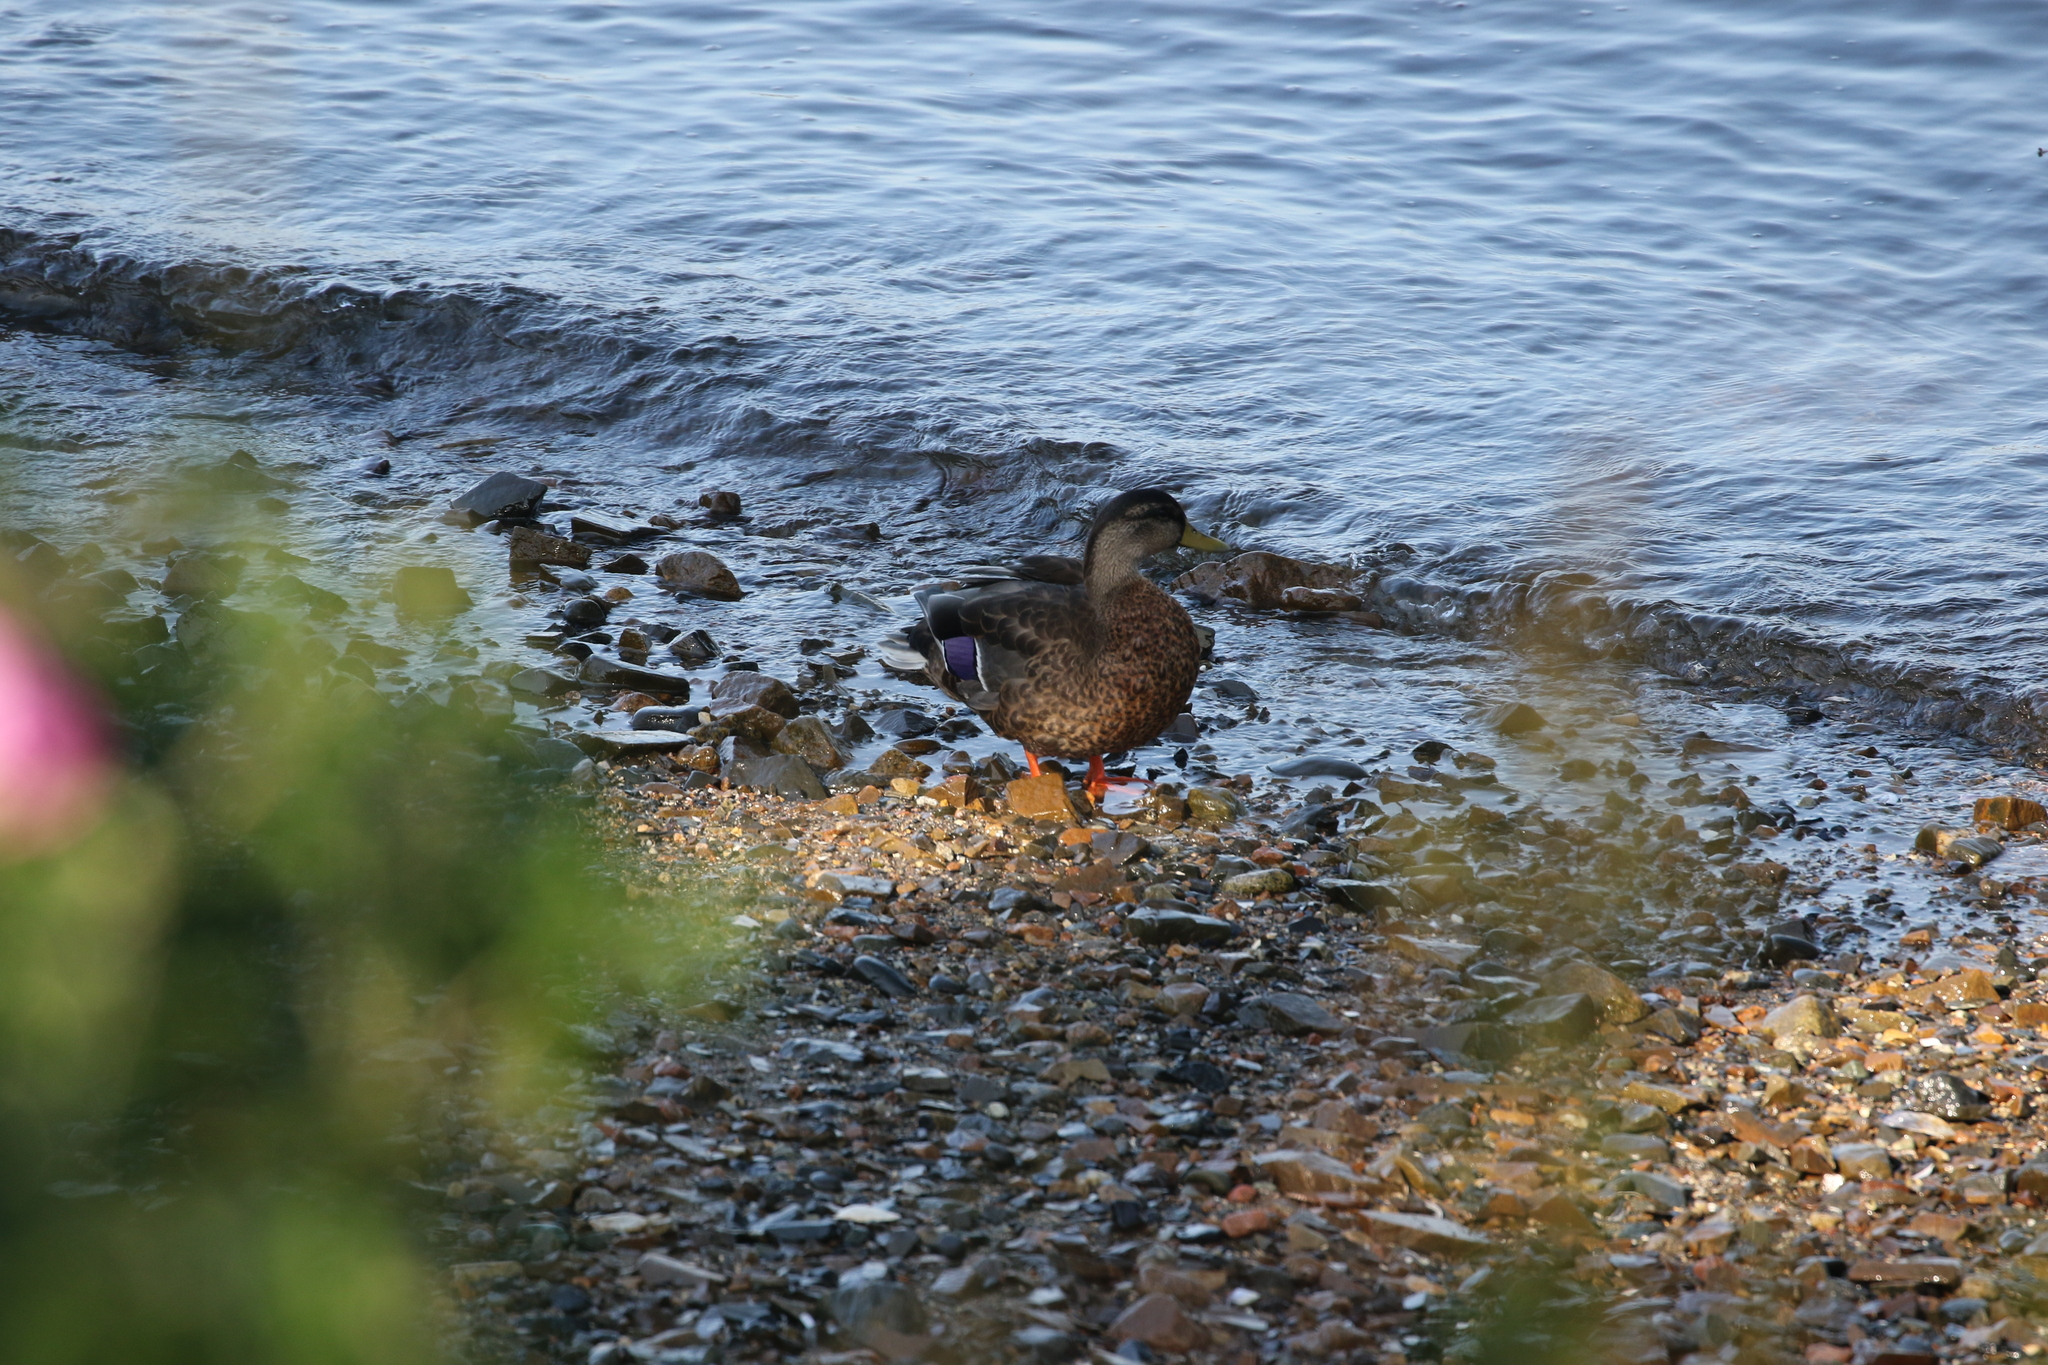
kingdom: Animalia
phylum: Chordata
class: Aves
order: Anseriformes
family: Anatidae
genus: Anas
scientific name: Anas platyrhynchos
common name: Mallard
